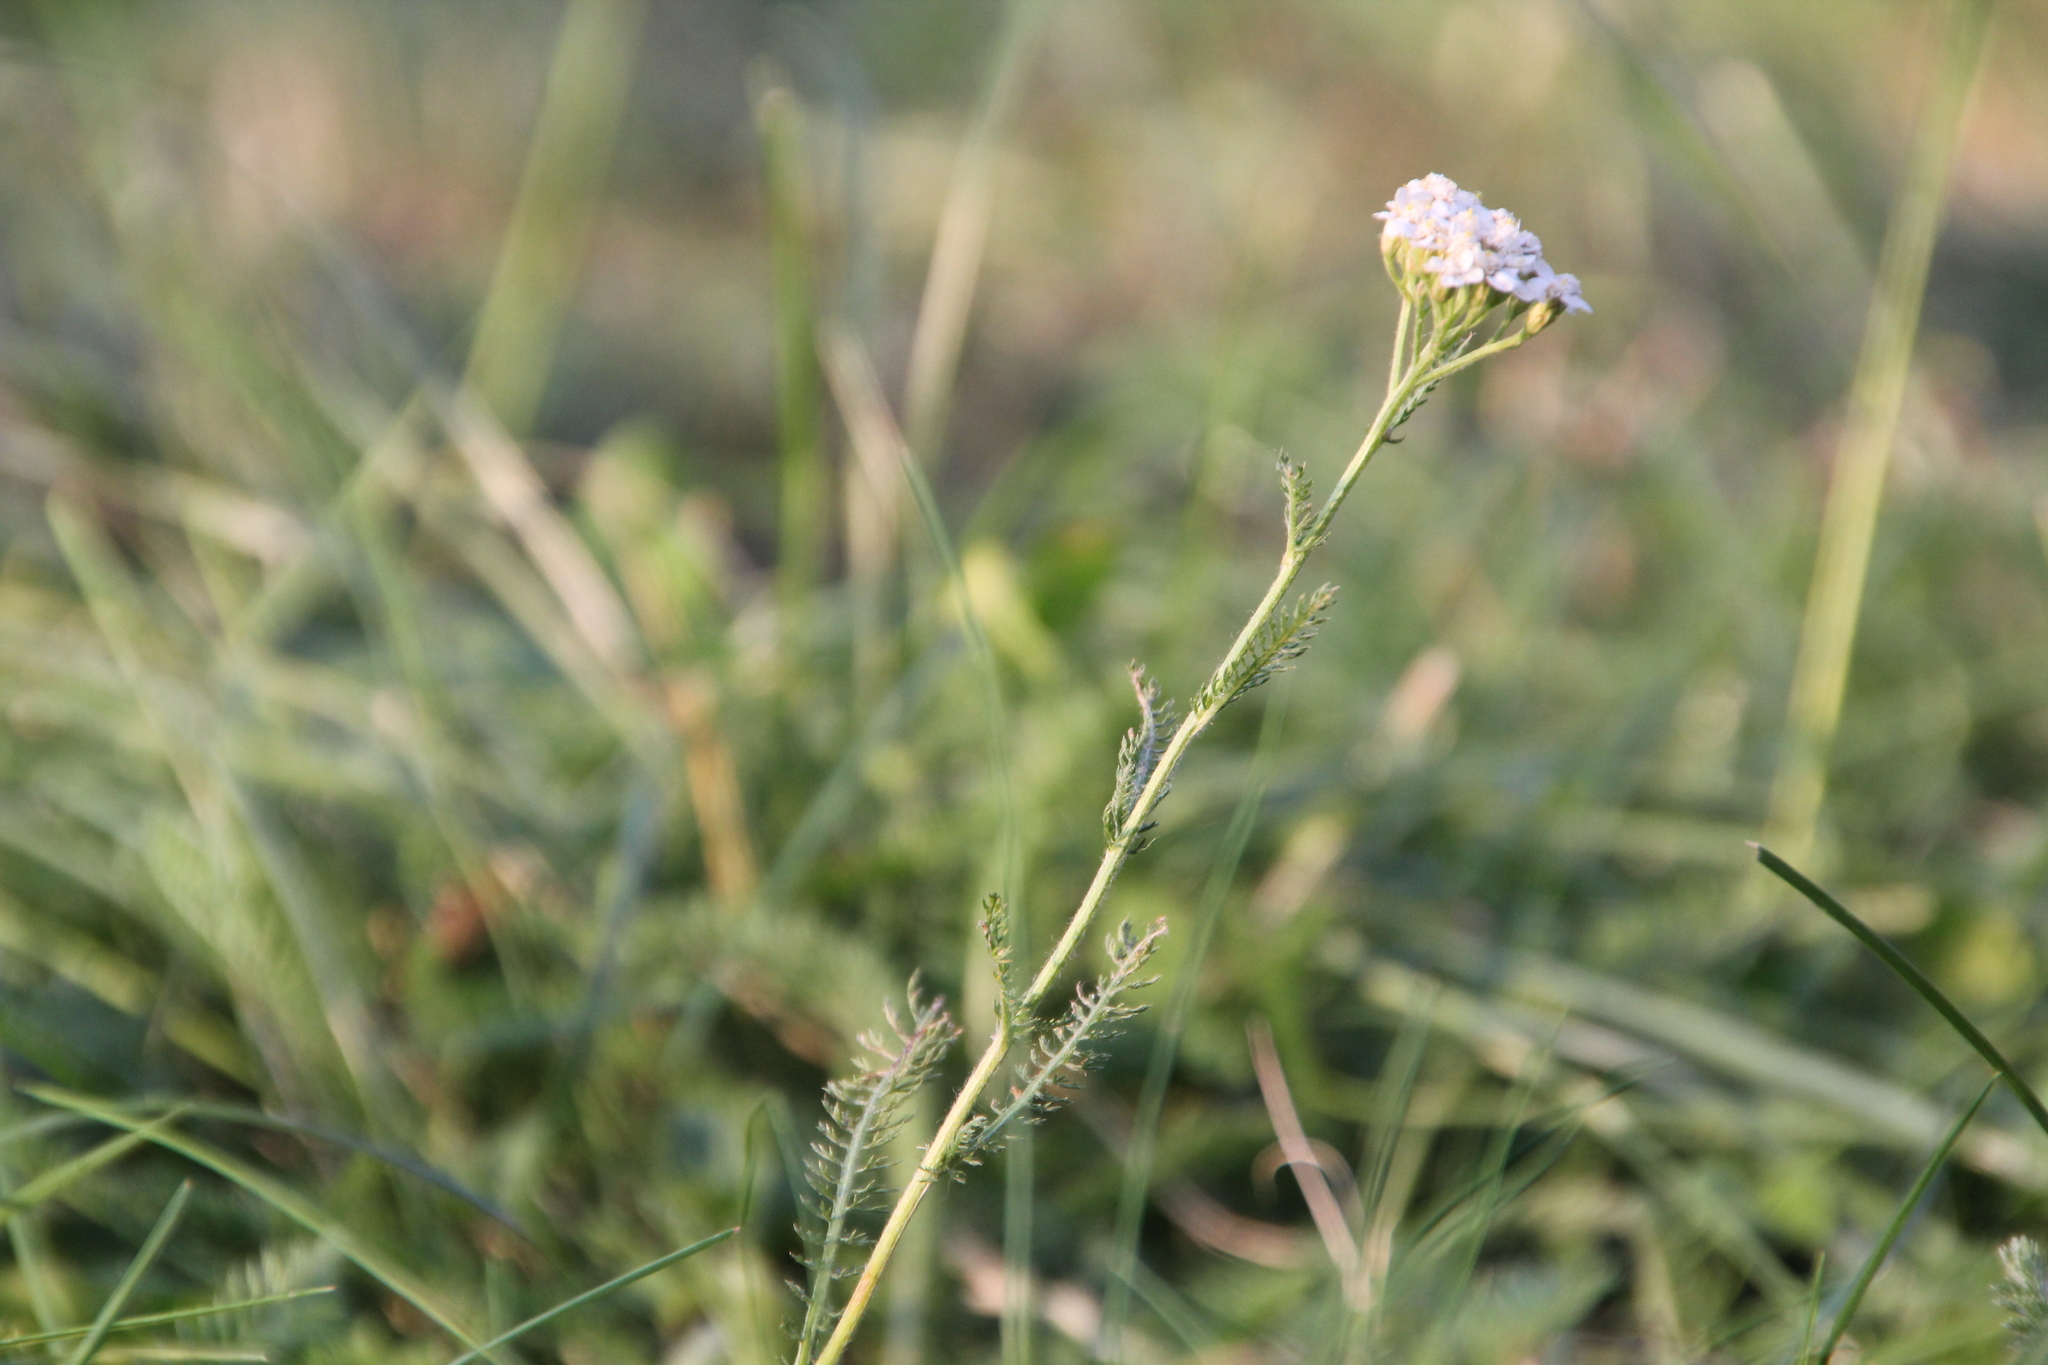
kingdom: Plantae
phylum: Tracheophyta
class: Magnoliopsida
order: Asterales
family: Asteraceae
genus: Achillea
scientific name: Achillea millefolium
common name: Yarrow
